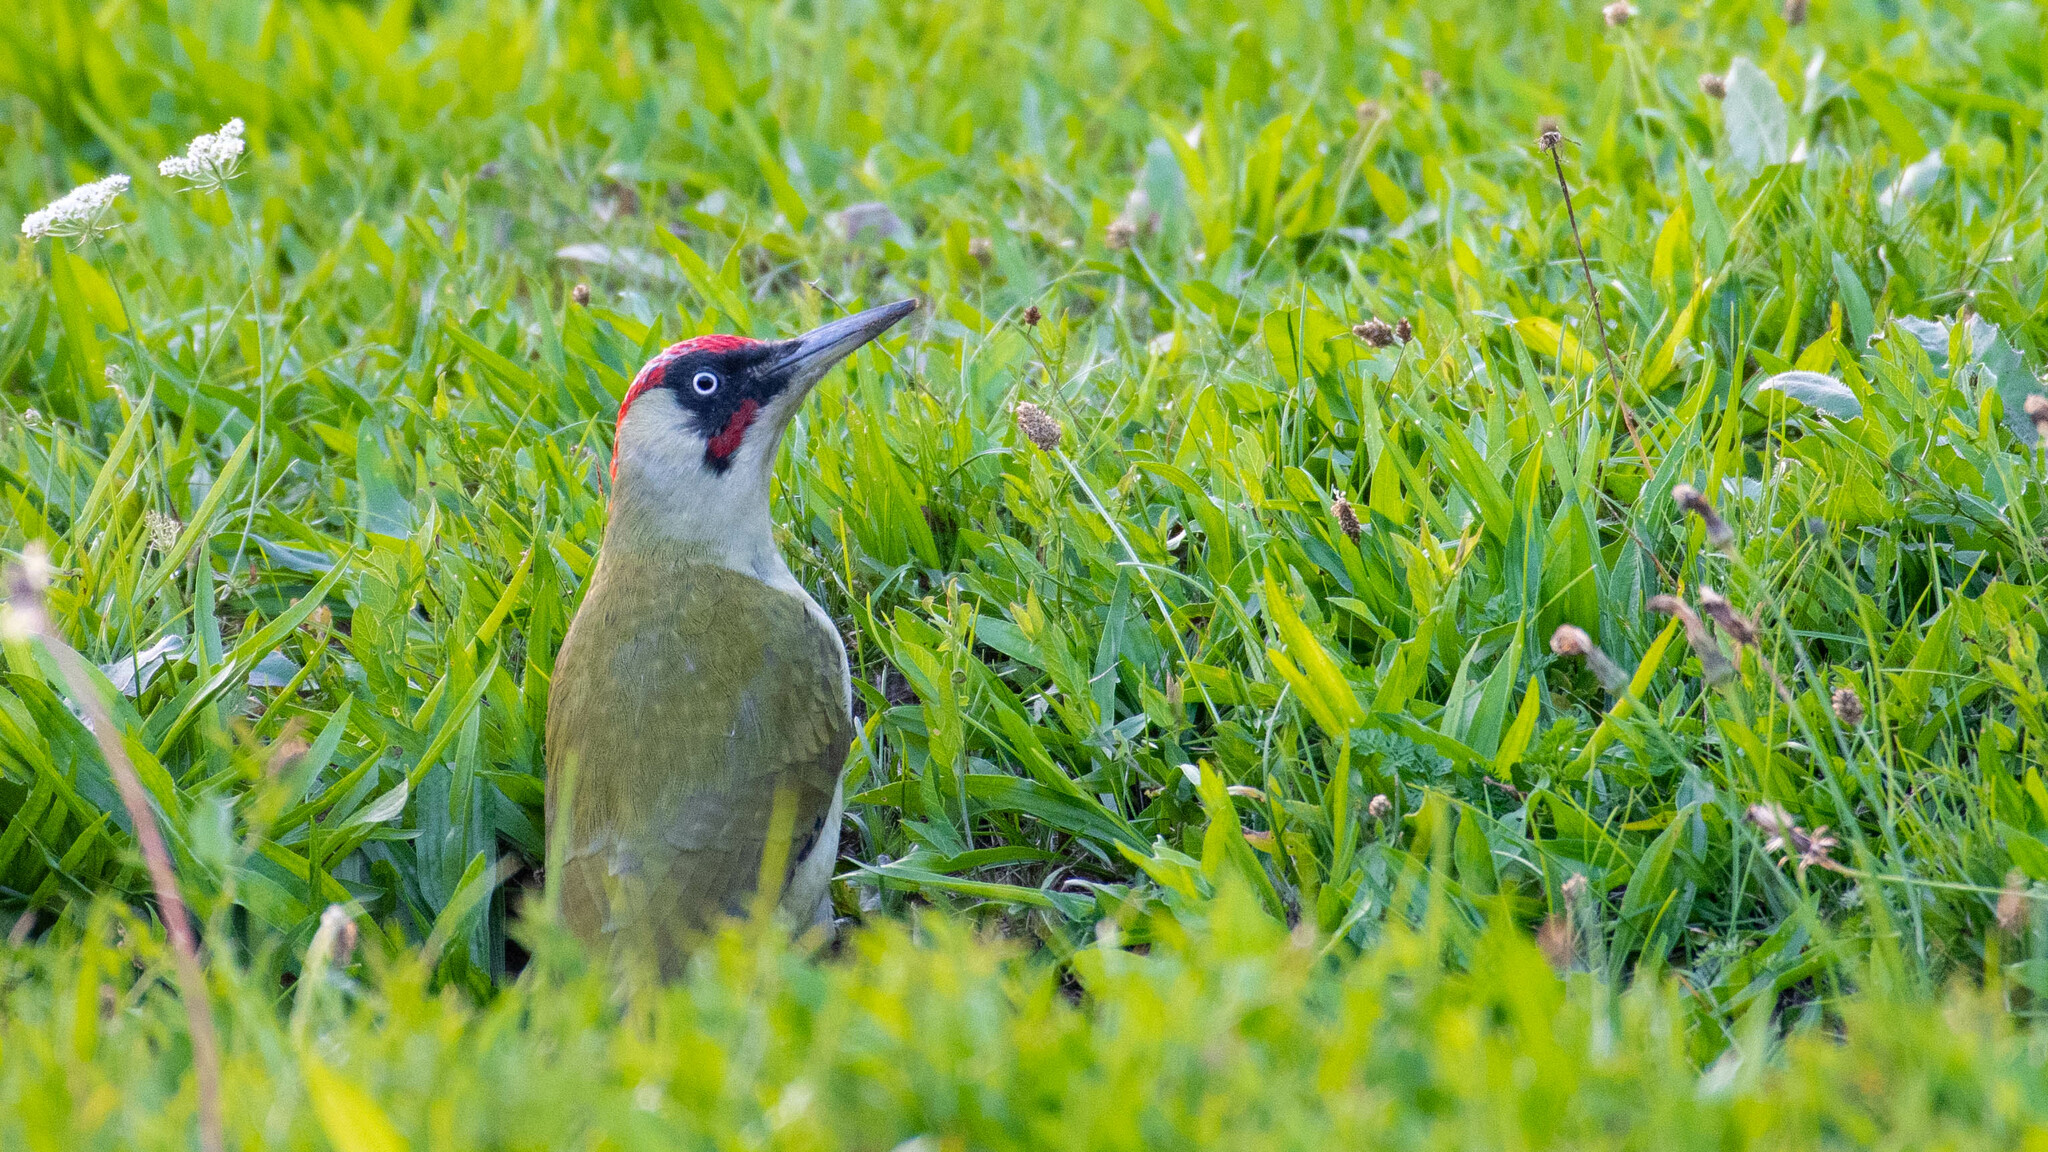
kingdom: Animalia
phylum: Chordata
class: Aves
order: Piciformes
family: Picidae
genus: Picus
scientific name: Picus viridis
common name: European green woodpecker
